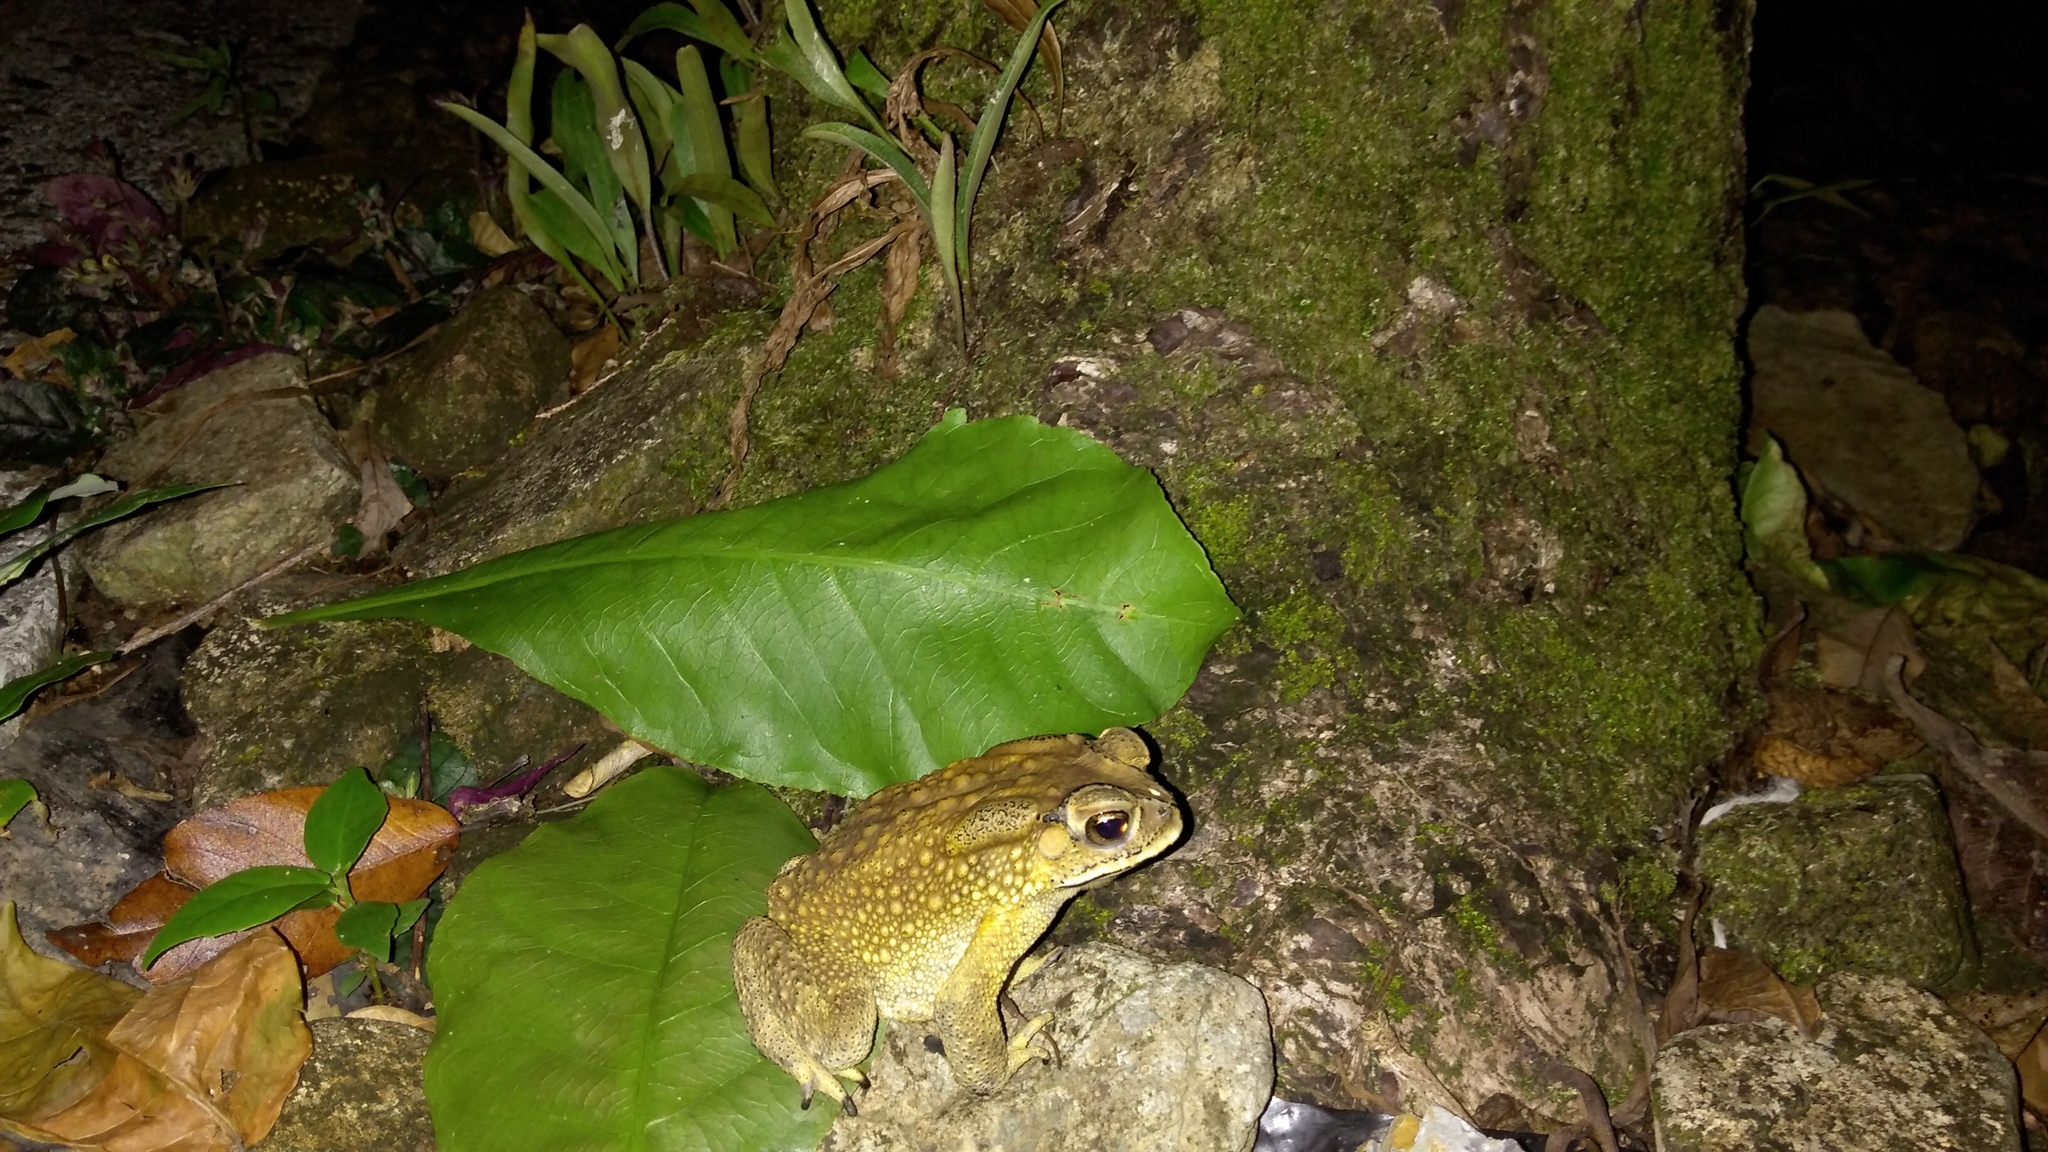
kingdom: Animalia
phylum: Chordata
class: Amphibia
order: Anura
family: Bufonidae
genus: Duttaphrynus
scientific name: Duttaphrynus melanostictus
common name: Common sunda toad
